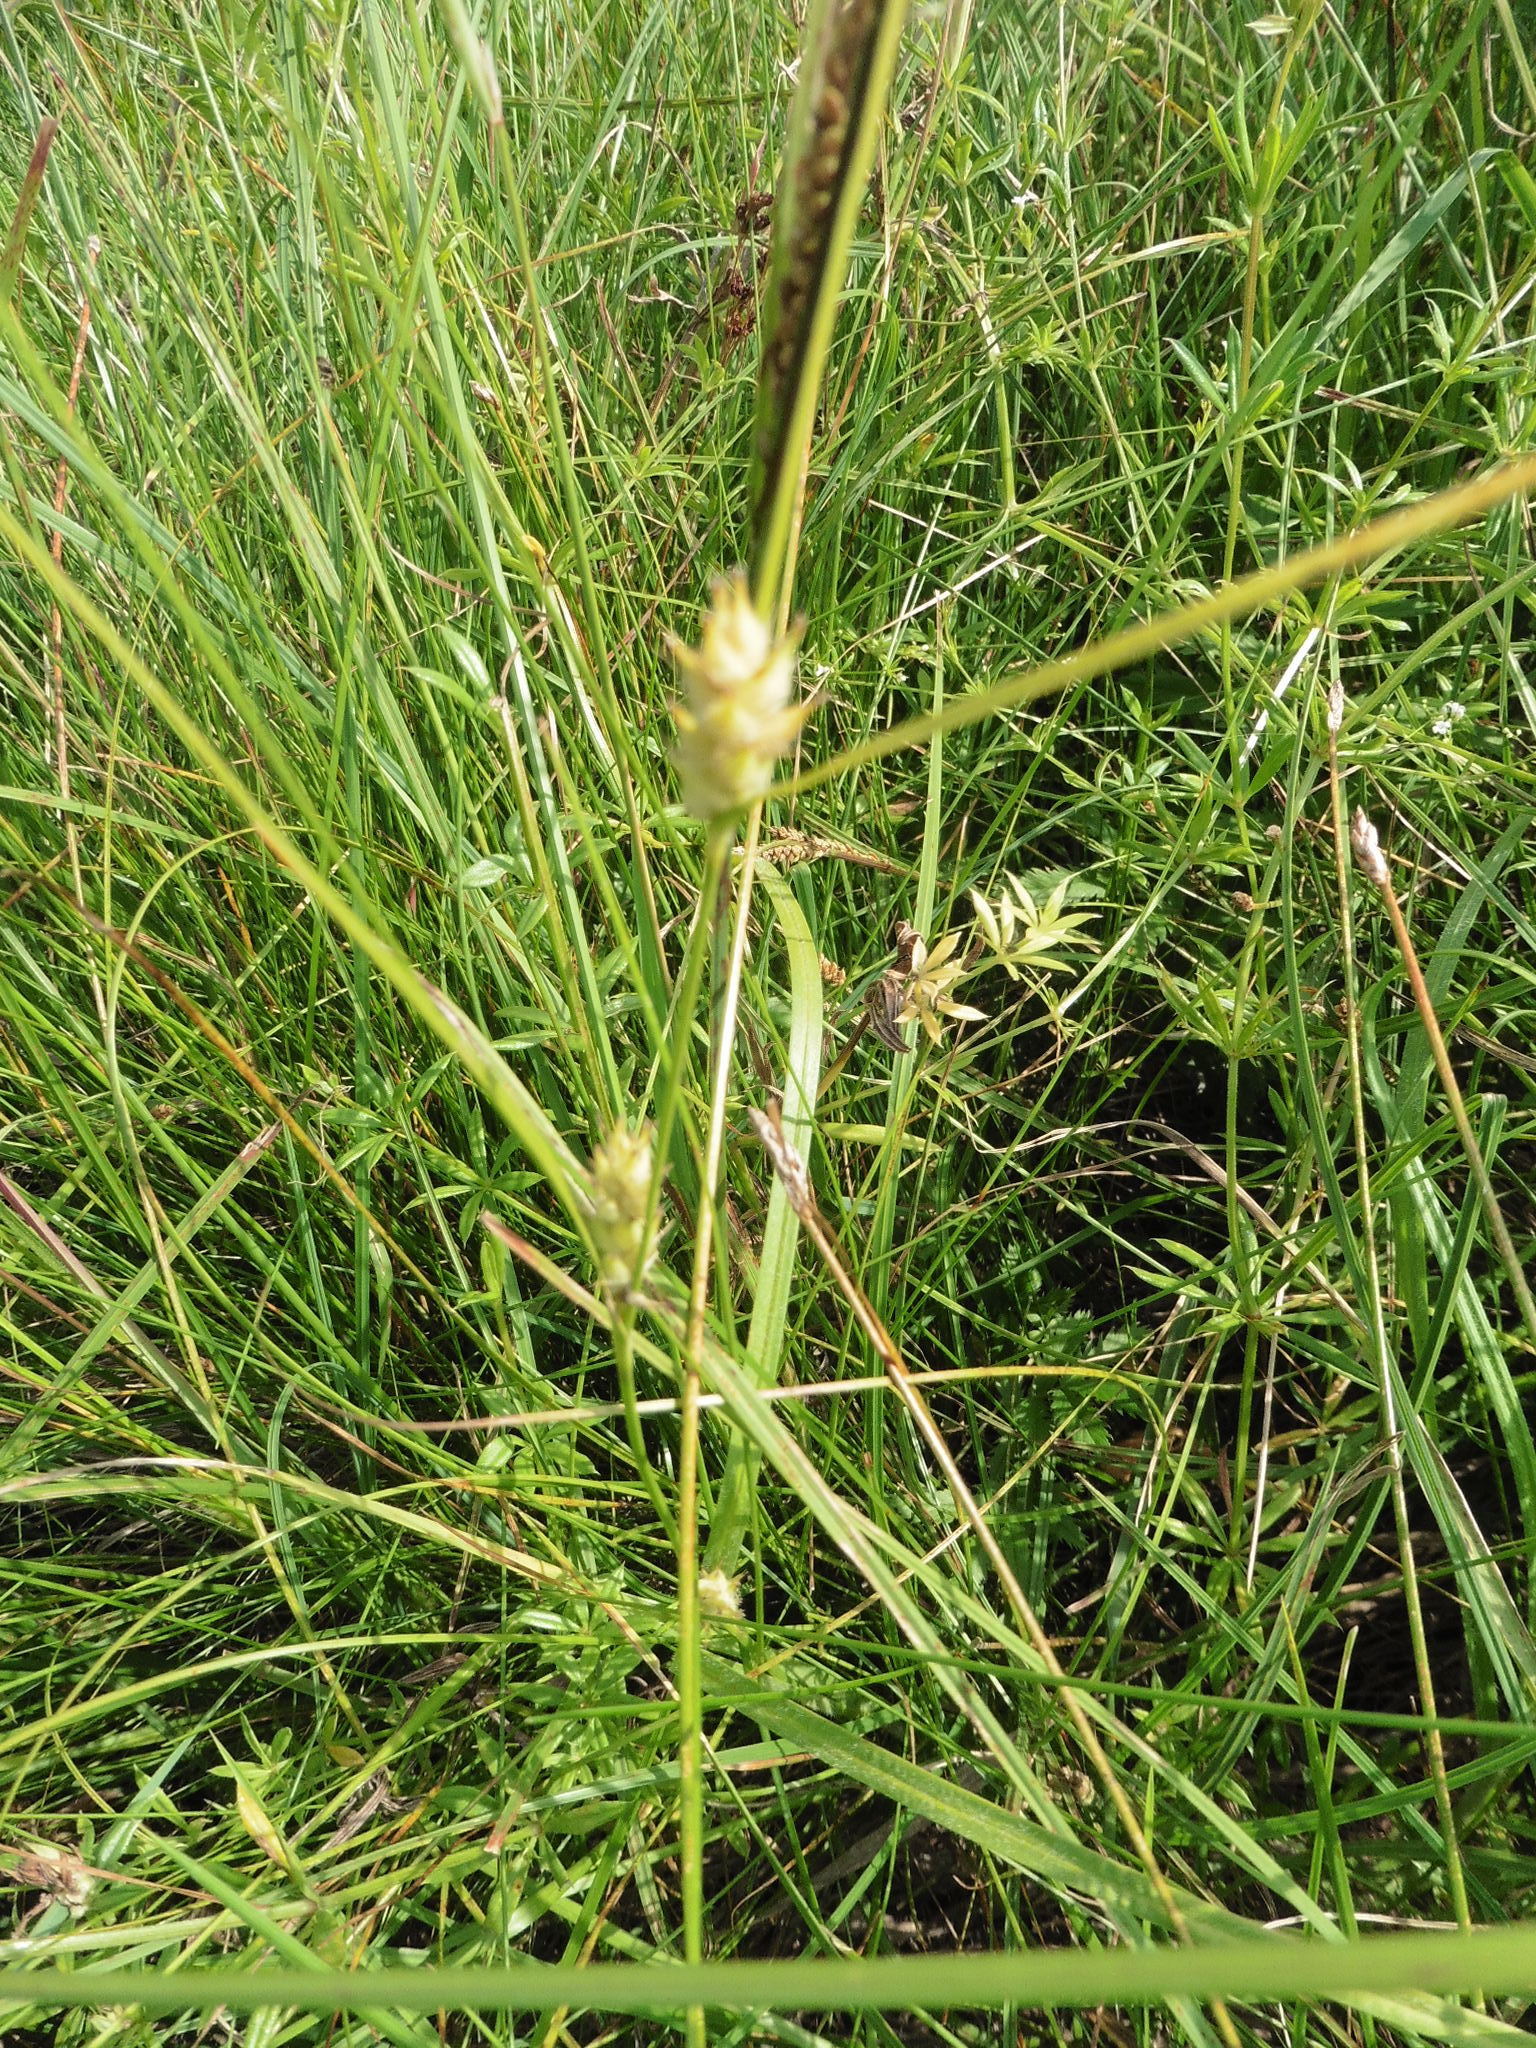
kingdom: Plantae
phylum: Tracheophyta
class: Liliopsida
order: Poales
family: Cyperaceae
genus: Carex
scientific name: Carex hirta
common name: Hairy sedge
